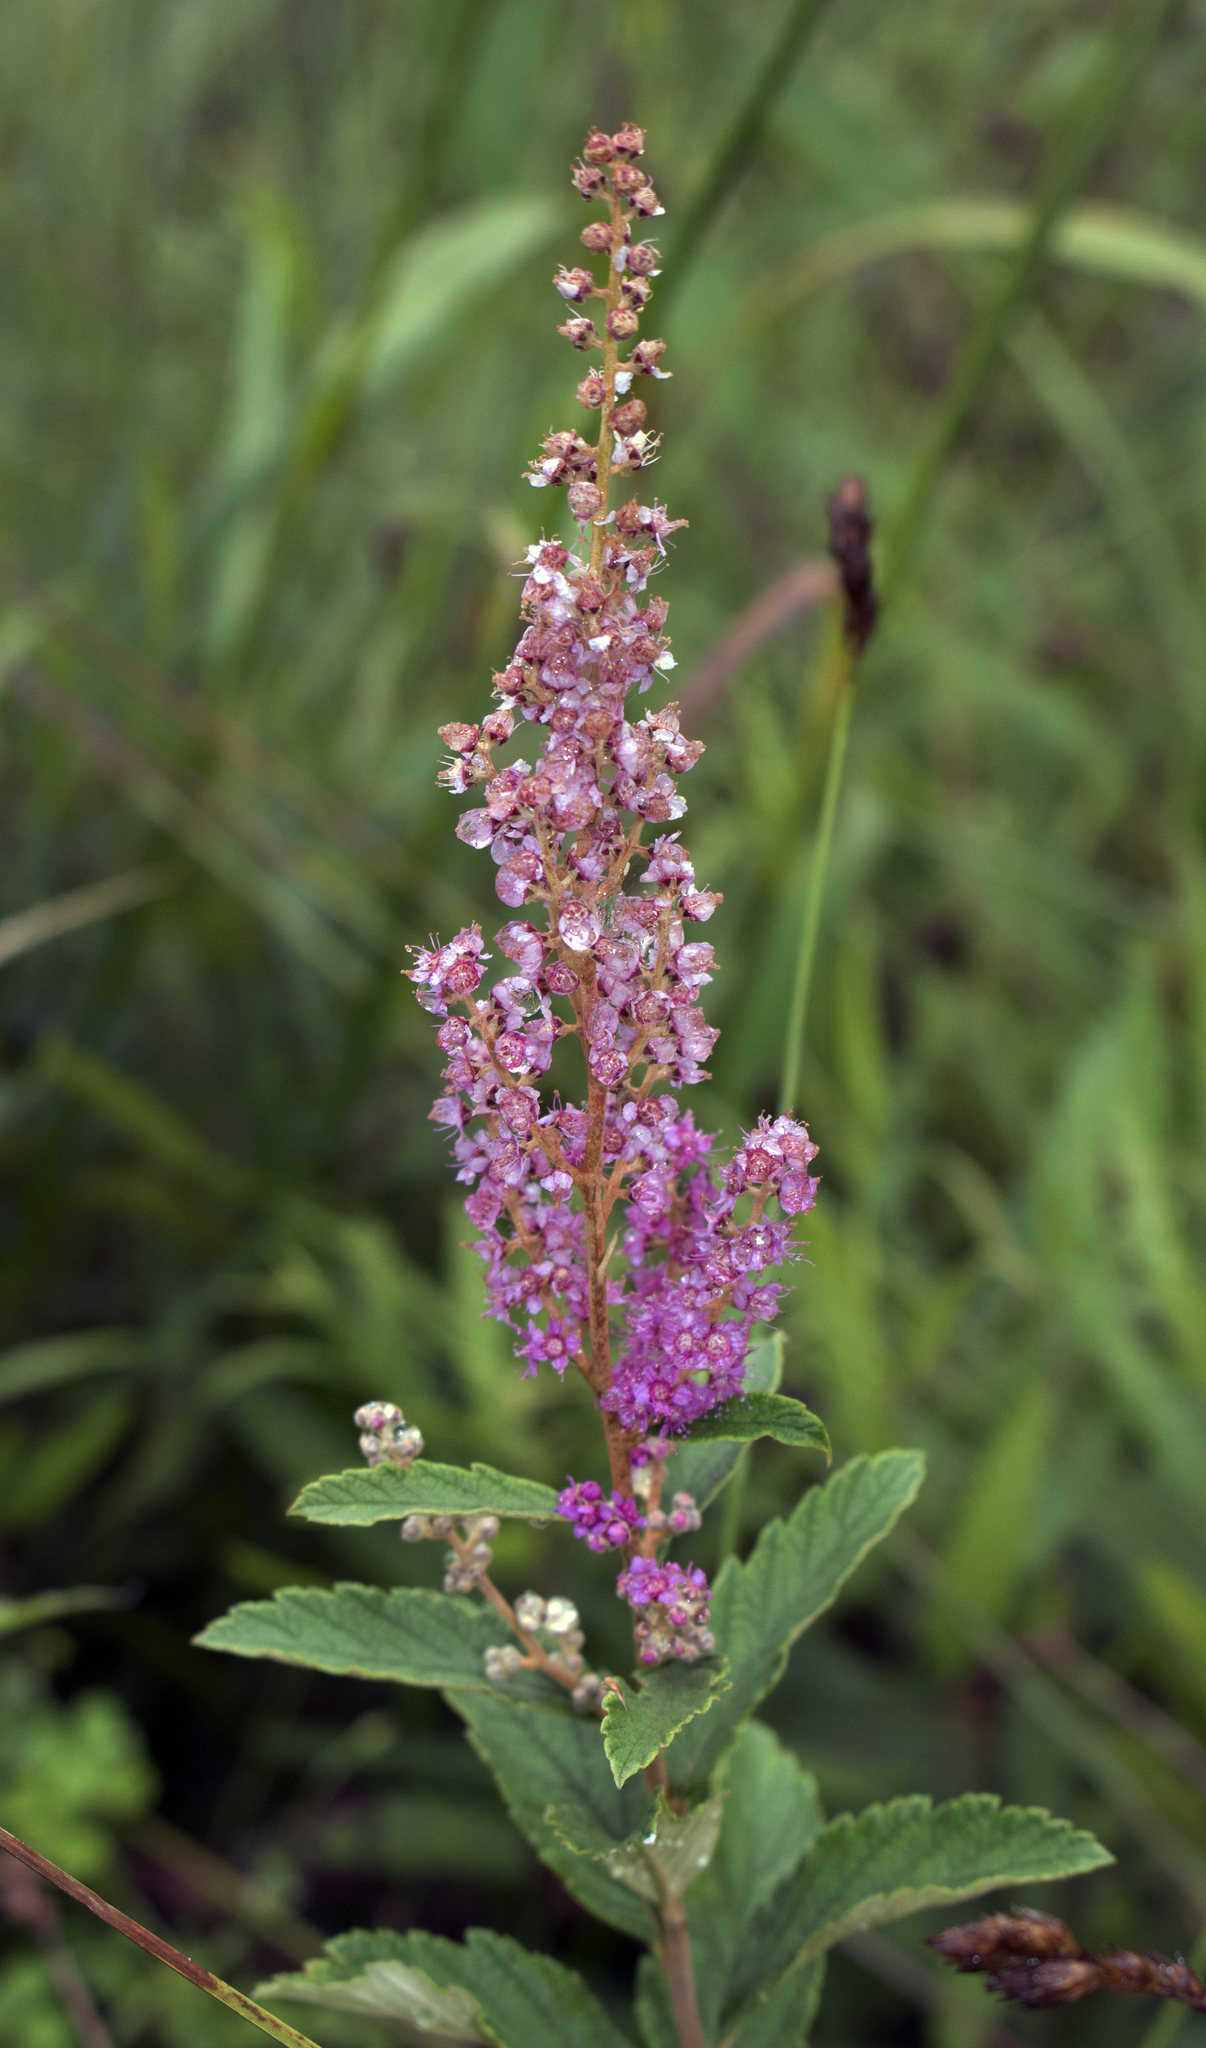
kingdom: Plantae
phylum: Tracheophyta
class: Magnoliopsida
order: Rosales
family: Rosaceae
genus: Spiraea
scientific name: Spiraea tomentosa
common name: Hardhack
